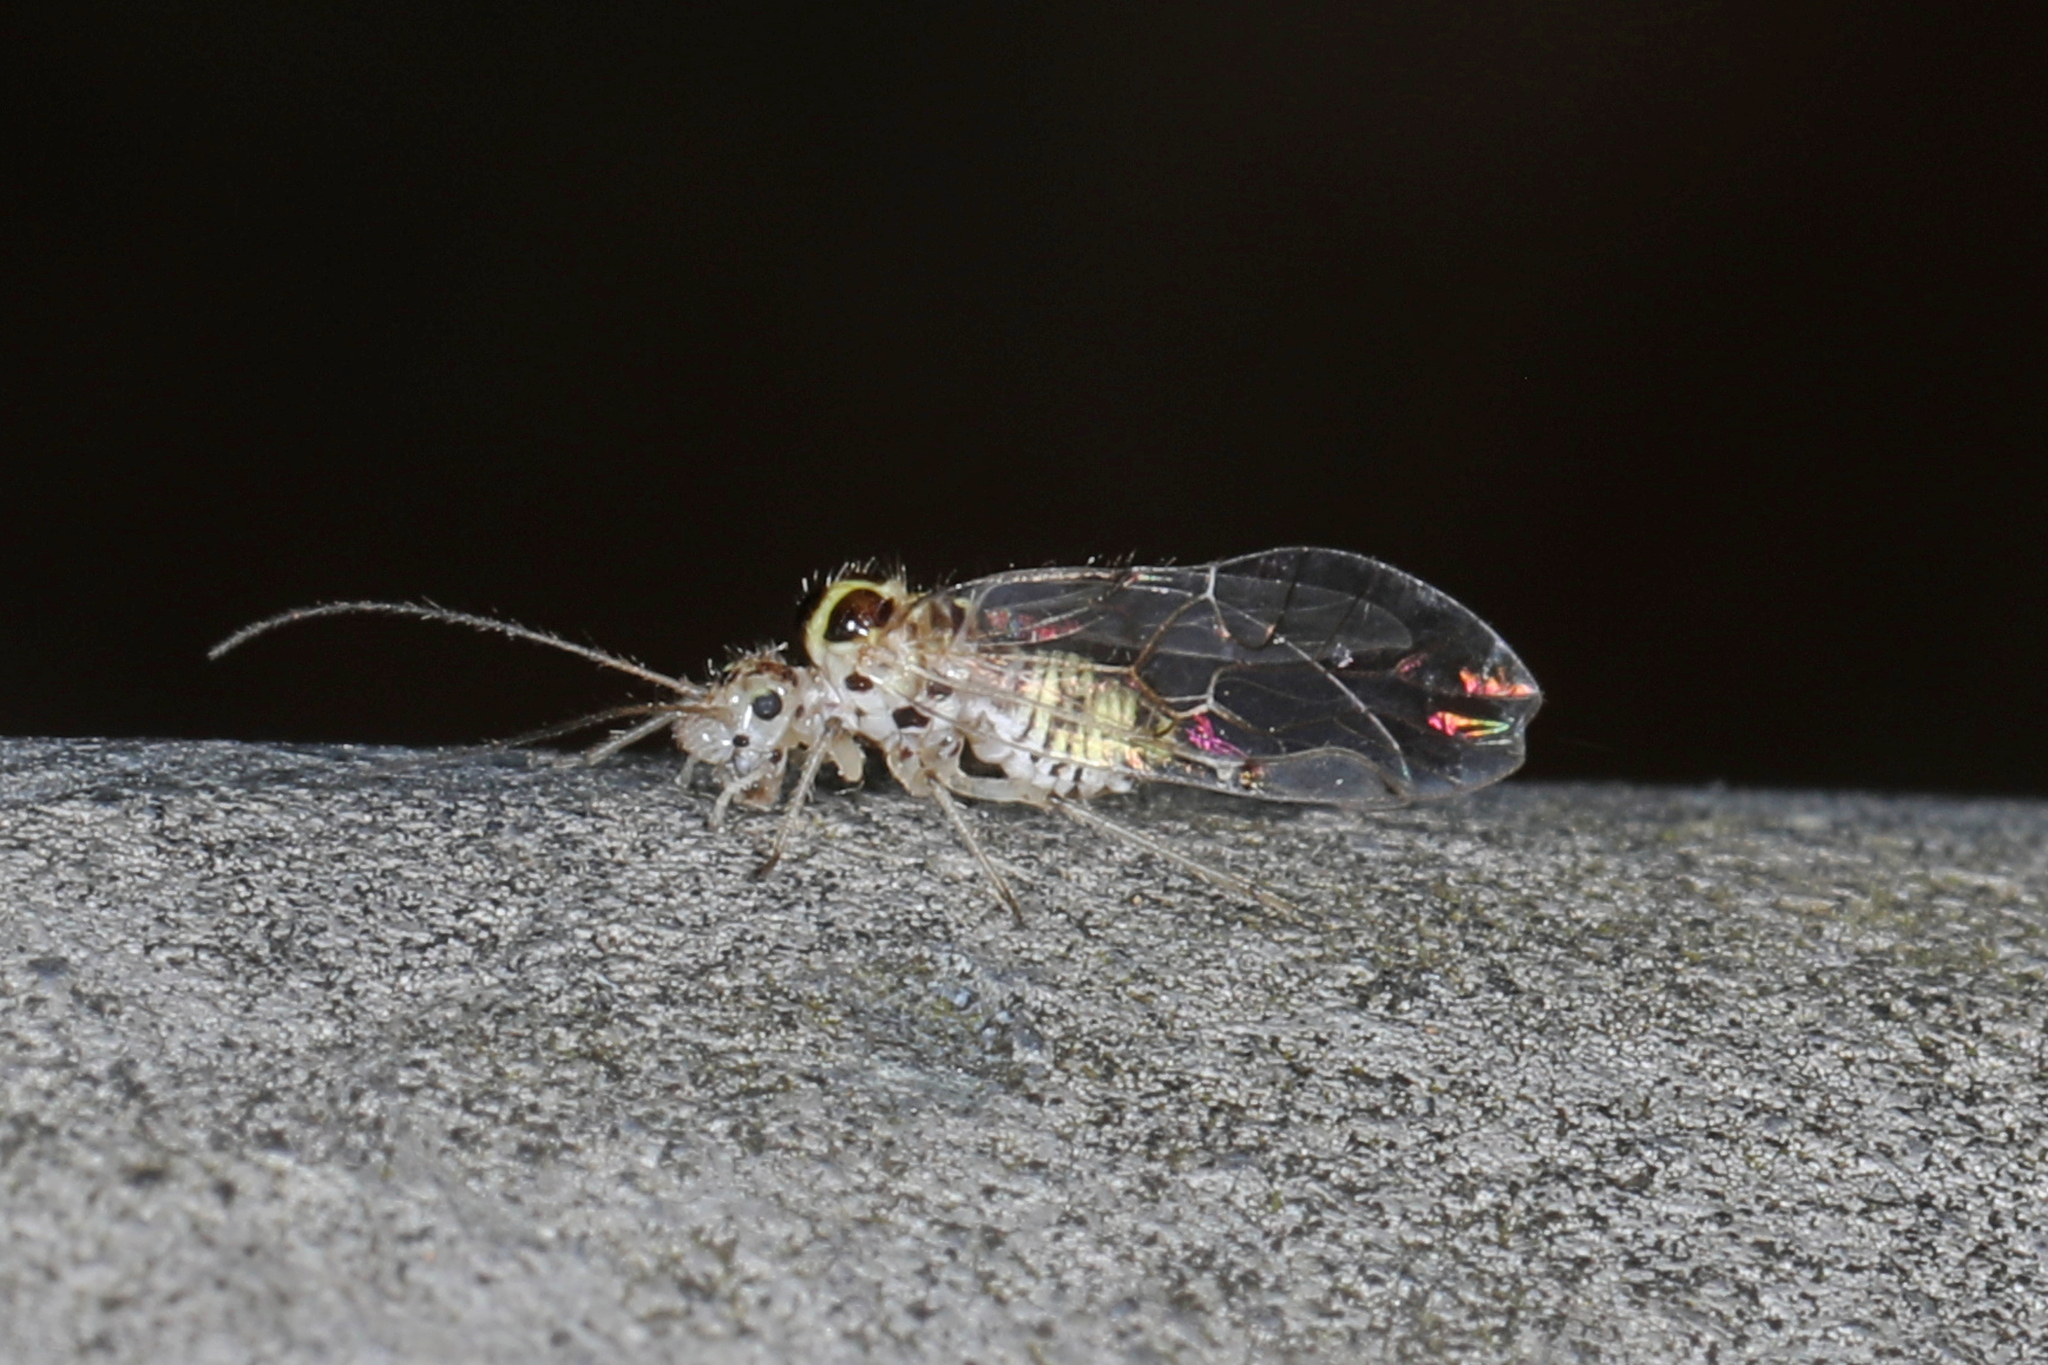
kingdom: Animalia
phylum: Arthropoda
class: Insecta
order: Psocodea
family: Dasydemellidae
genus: Teliapsocus
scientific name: Teliapsocus conterminus
